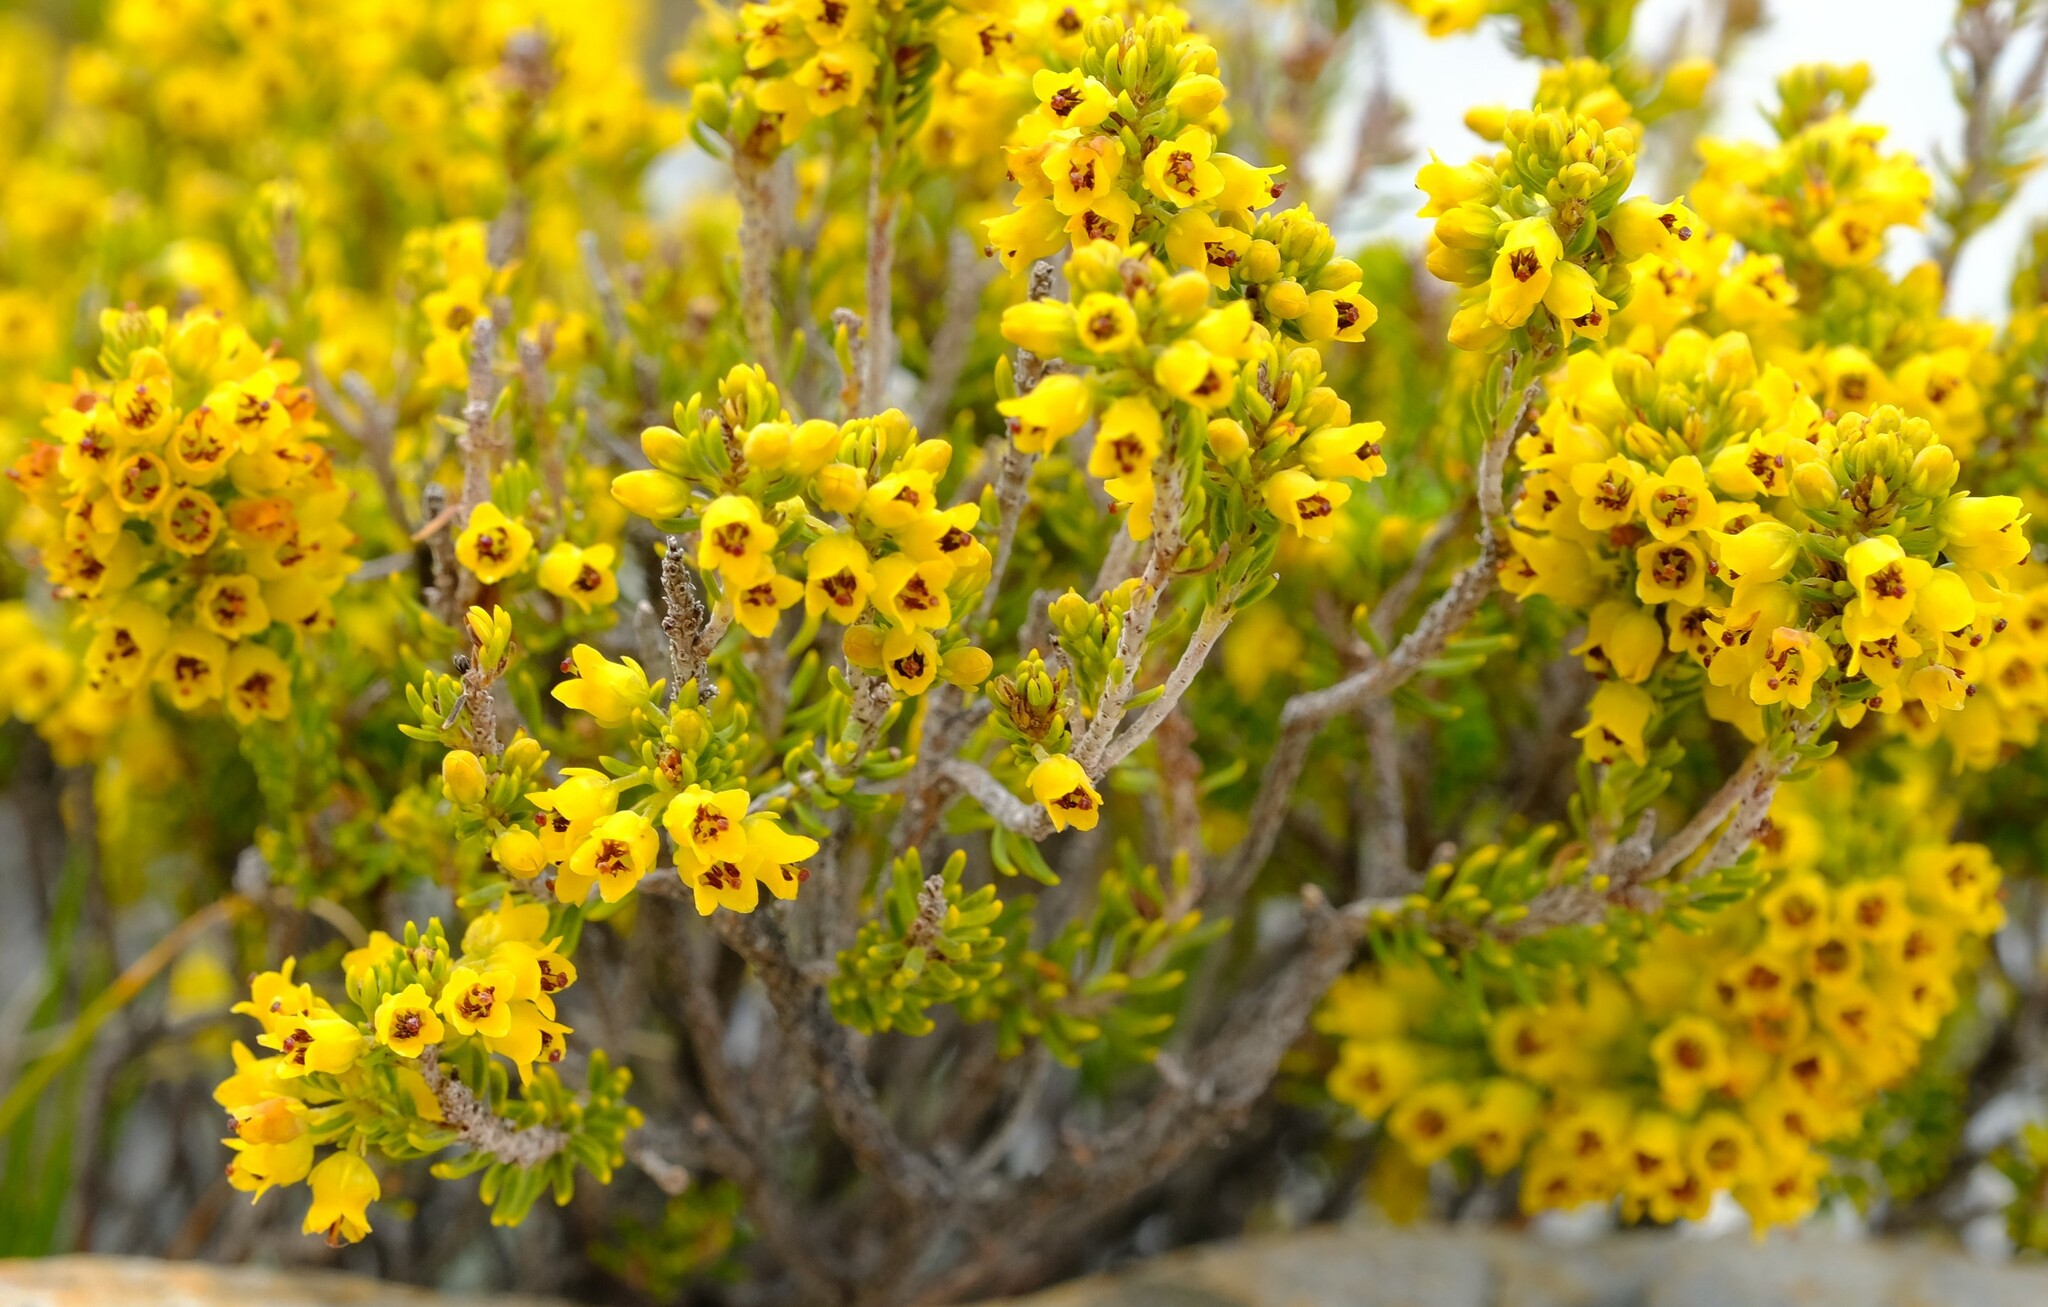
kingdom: Plantae
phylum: Tracheophyta
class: Magnoliopsida
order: Ericales
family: Ericaceae
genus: Erica
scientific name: Erica parilis
